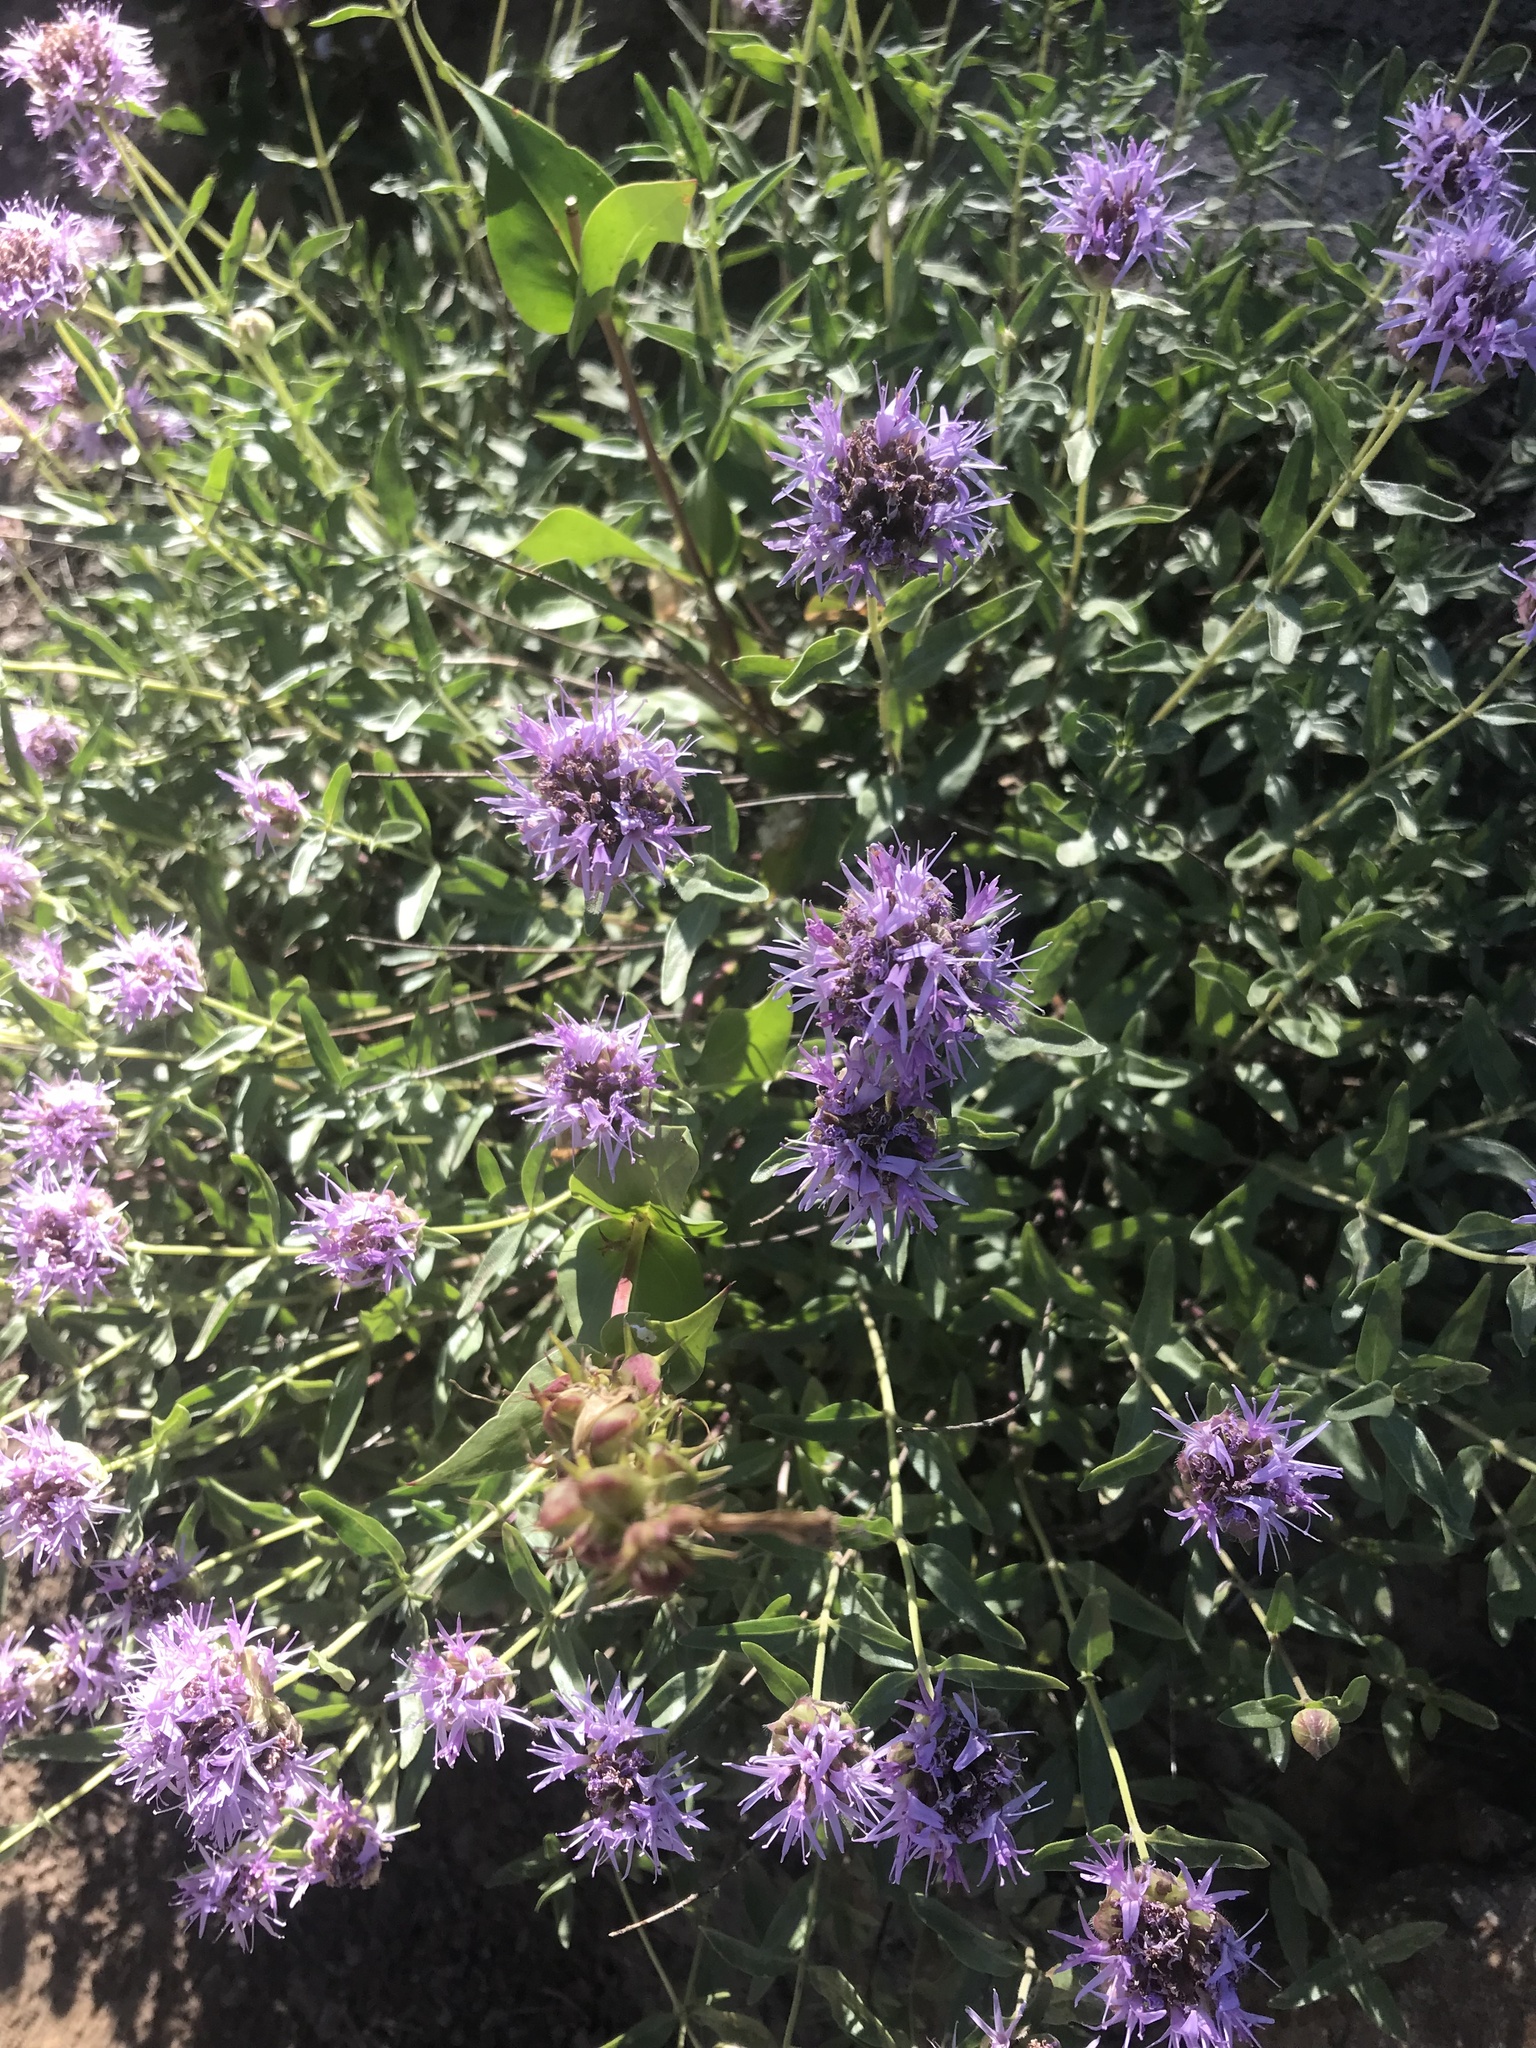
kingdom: Plantae
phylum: Tracheophyta
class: Magnoliopsida
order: Lamiales
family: Lamiaceae
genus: Monardella
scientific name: Monardella odoratissima
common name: Pacific monardella
